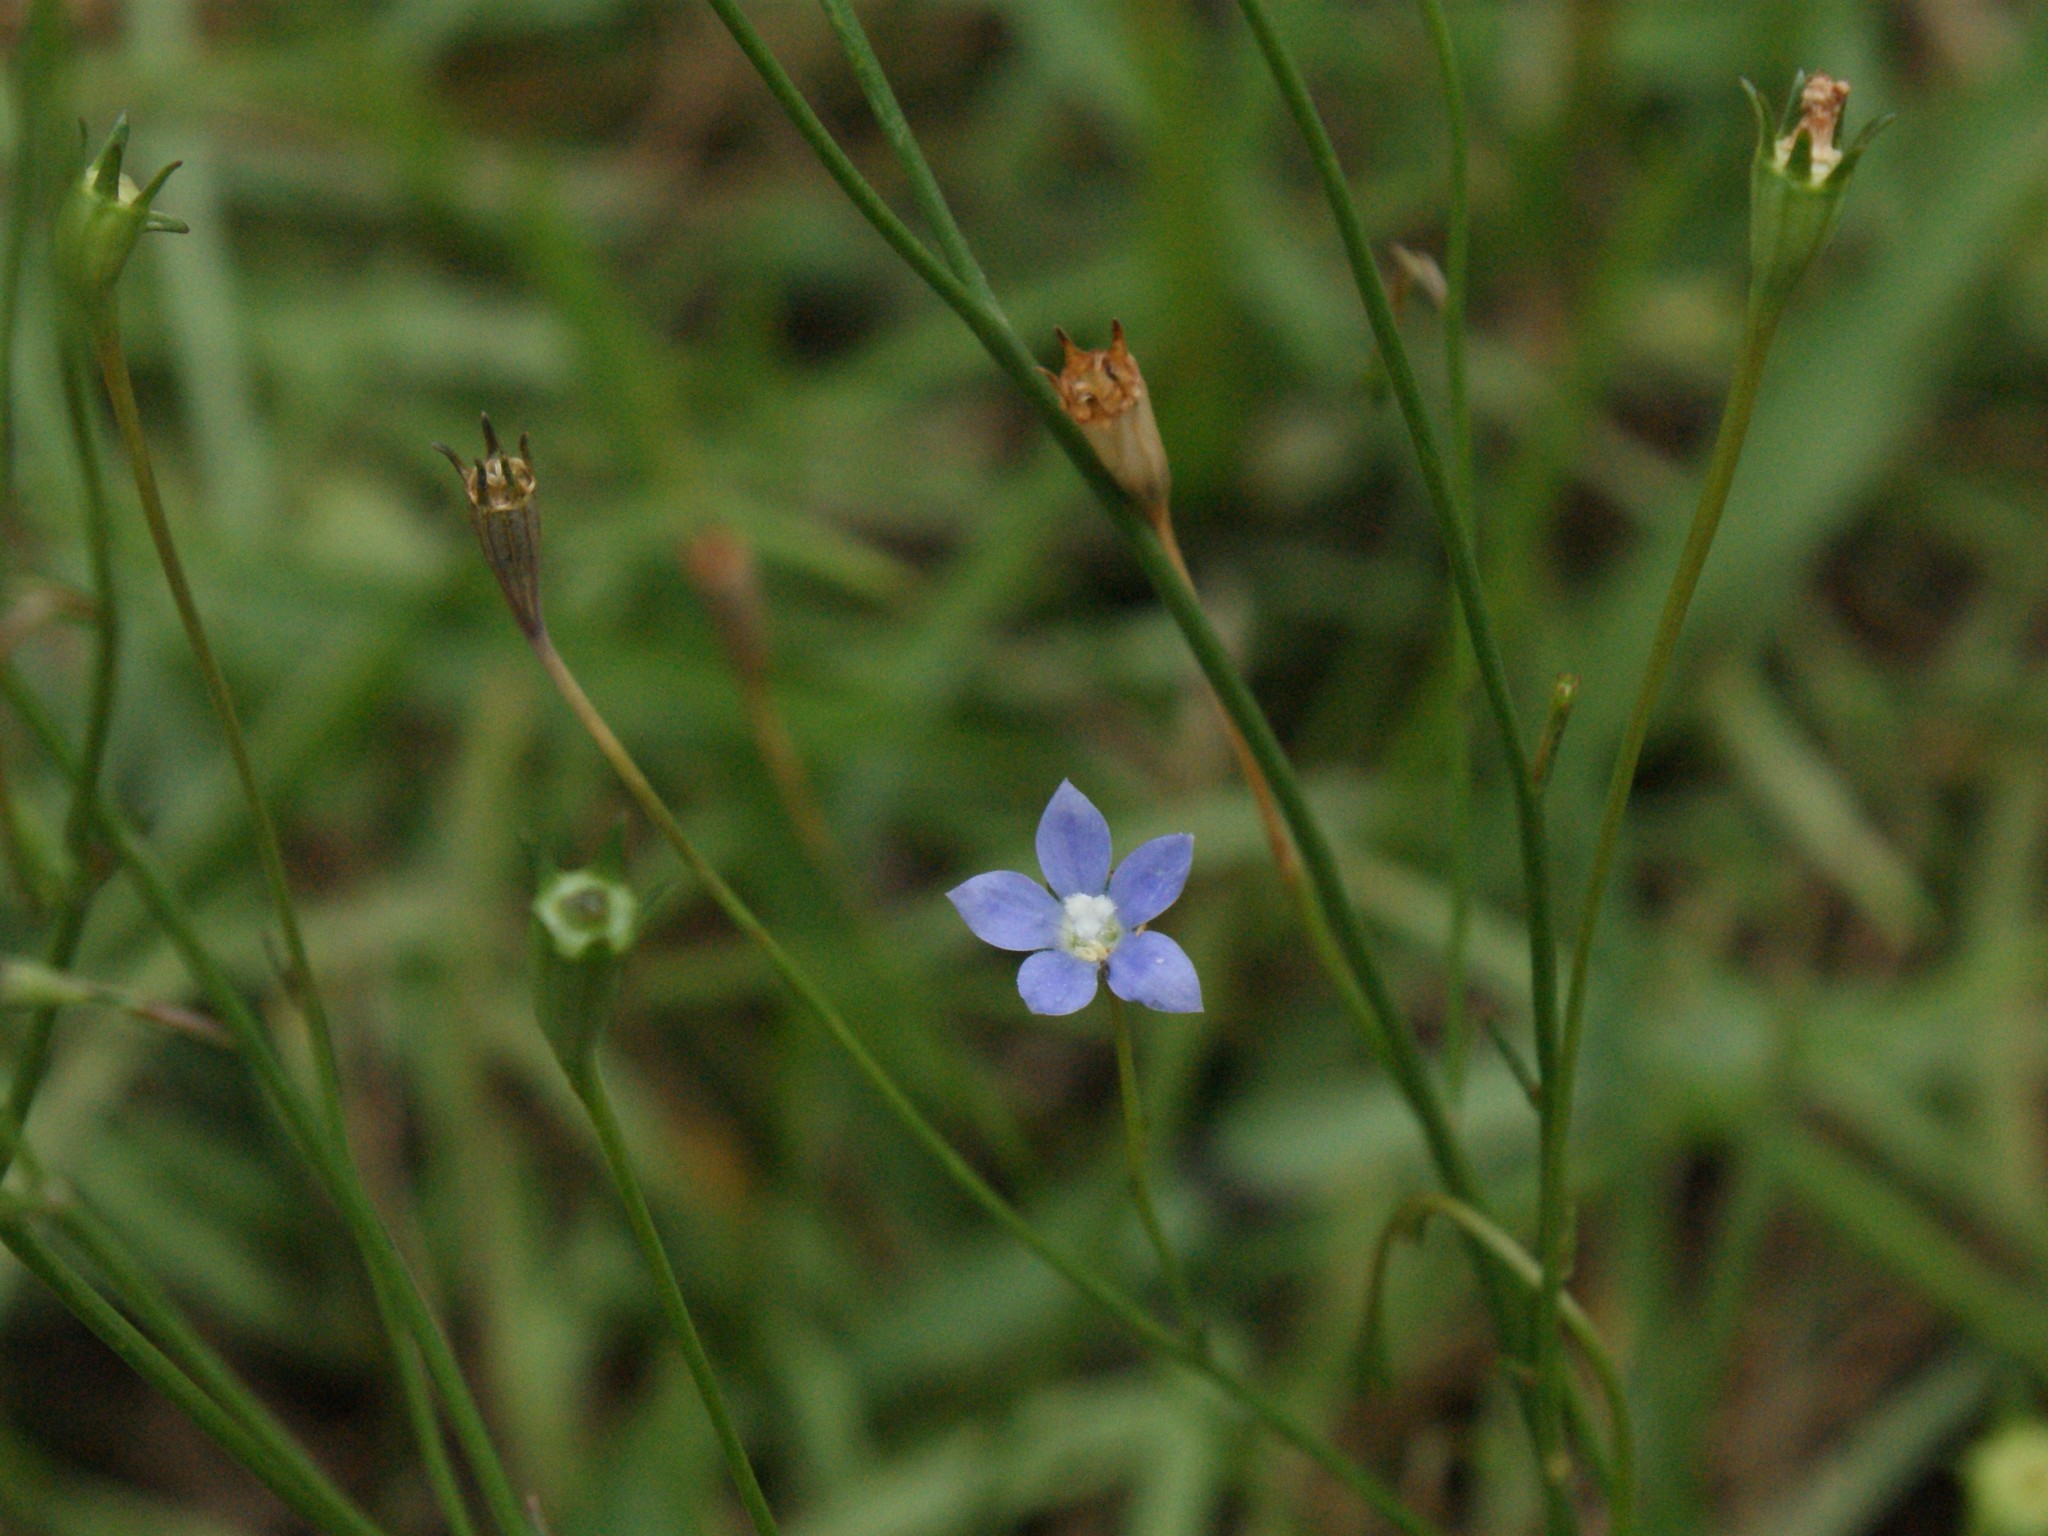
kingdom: Plantae
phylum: Tracheophyta
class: Magnoliopsida
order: Asterales
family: Campanulaceae
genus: Wahlenbergia
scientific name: Wahlenbergia marginata
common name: Southern rockbell
